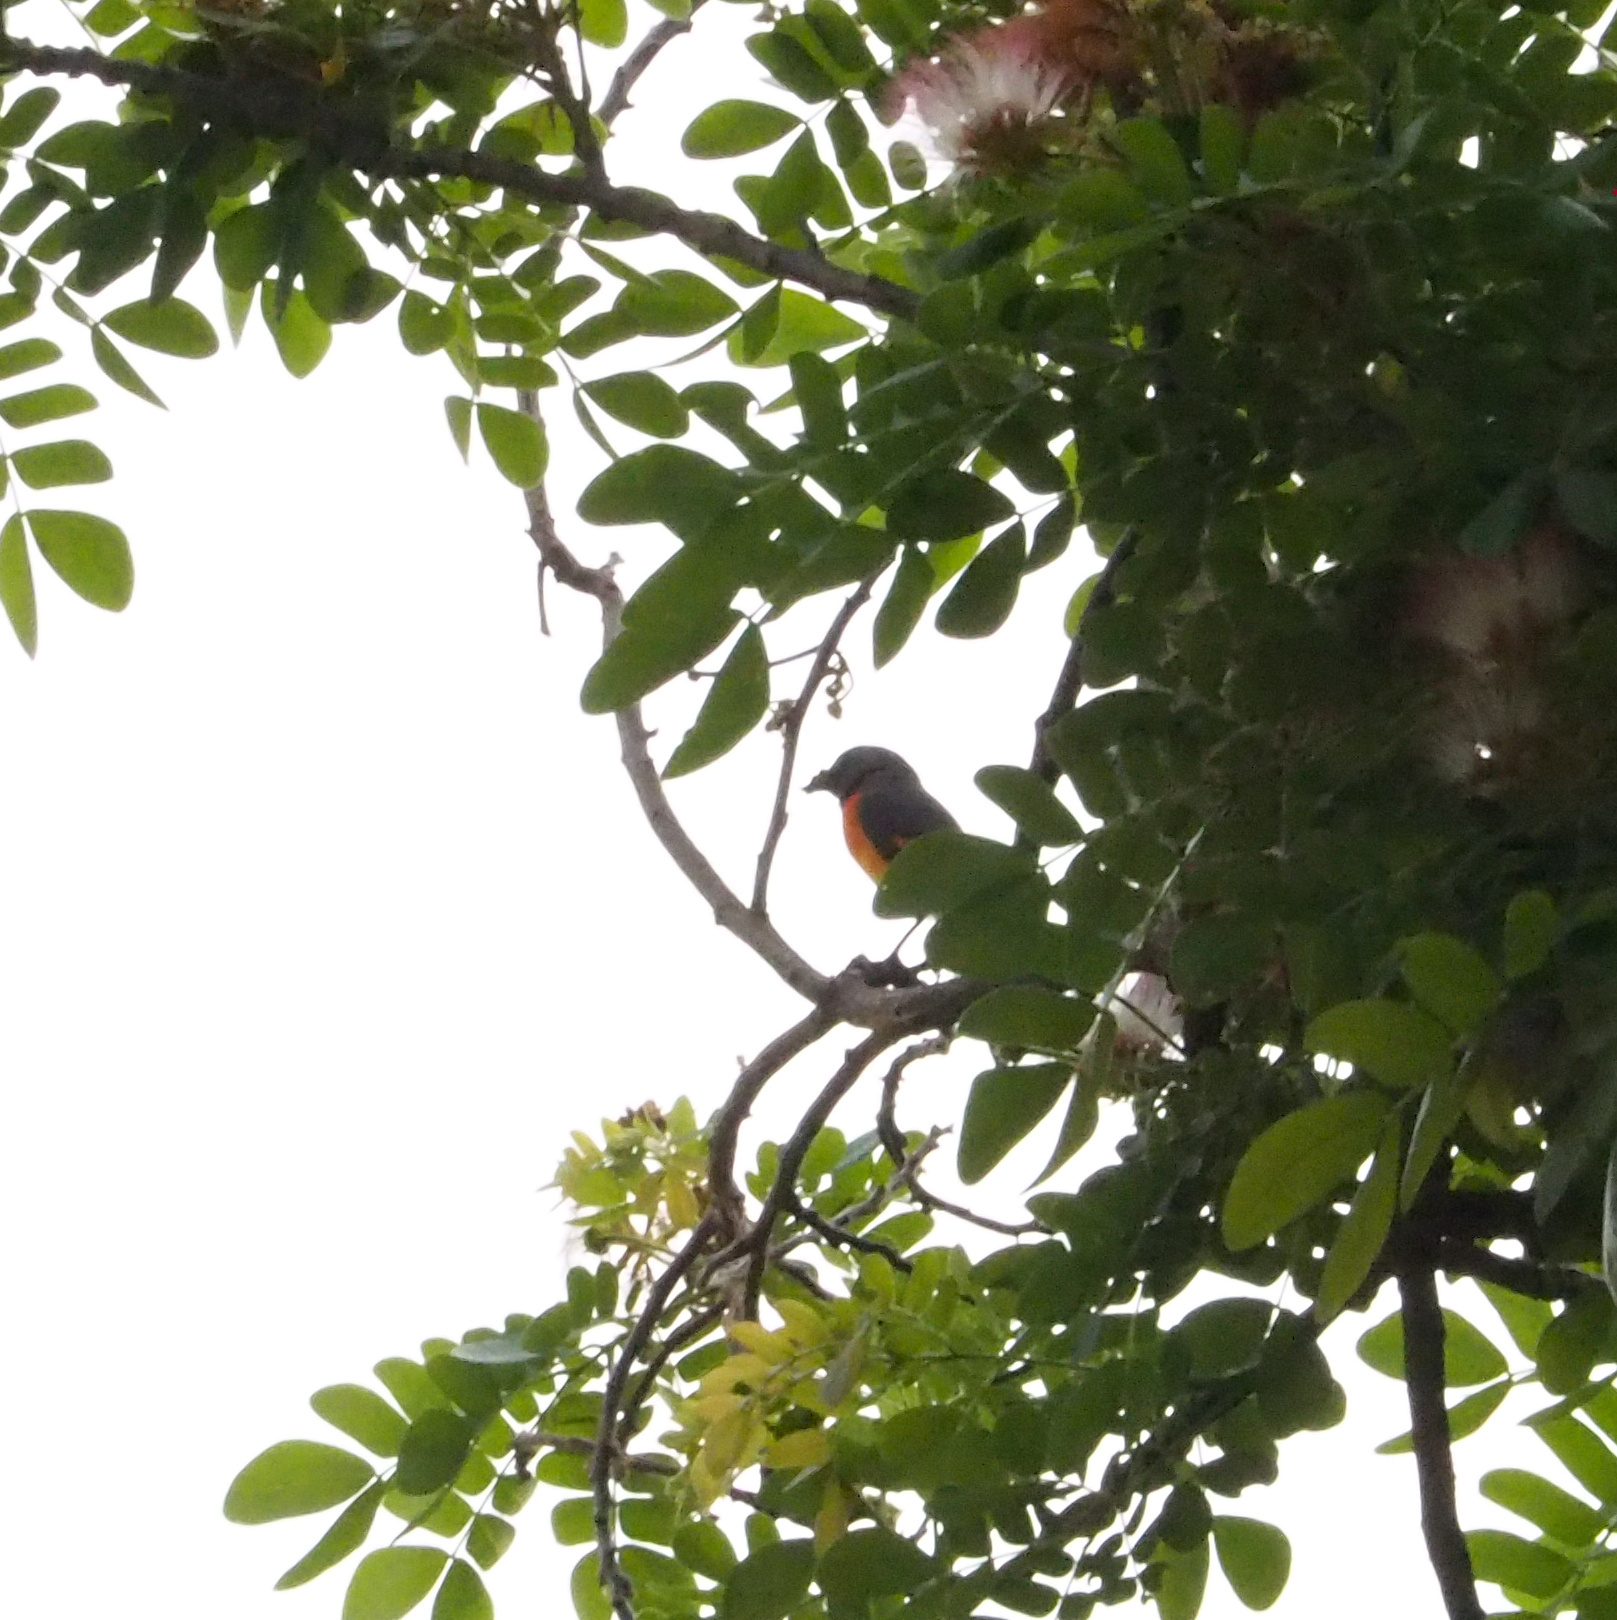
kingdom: Animalia
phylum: Chordata
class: Aves
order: Passeriformes
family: Campephagidae
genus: Pericrocotus
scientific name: Pericrocotus cinnamomeus
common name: Small minivet
